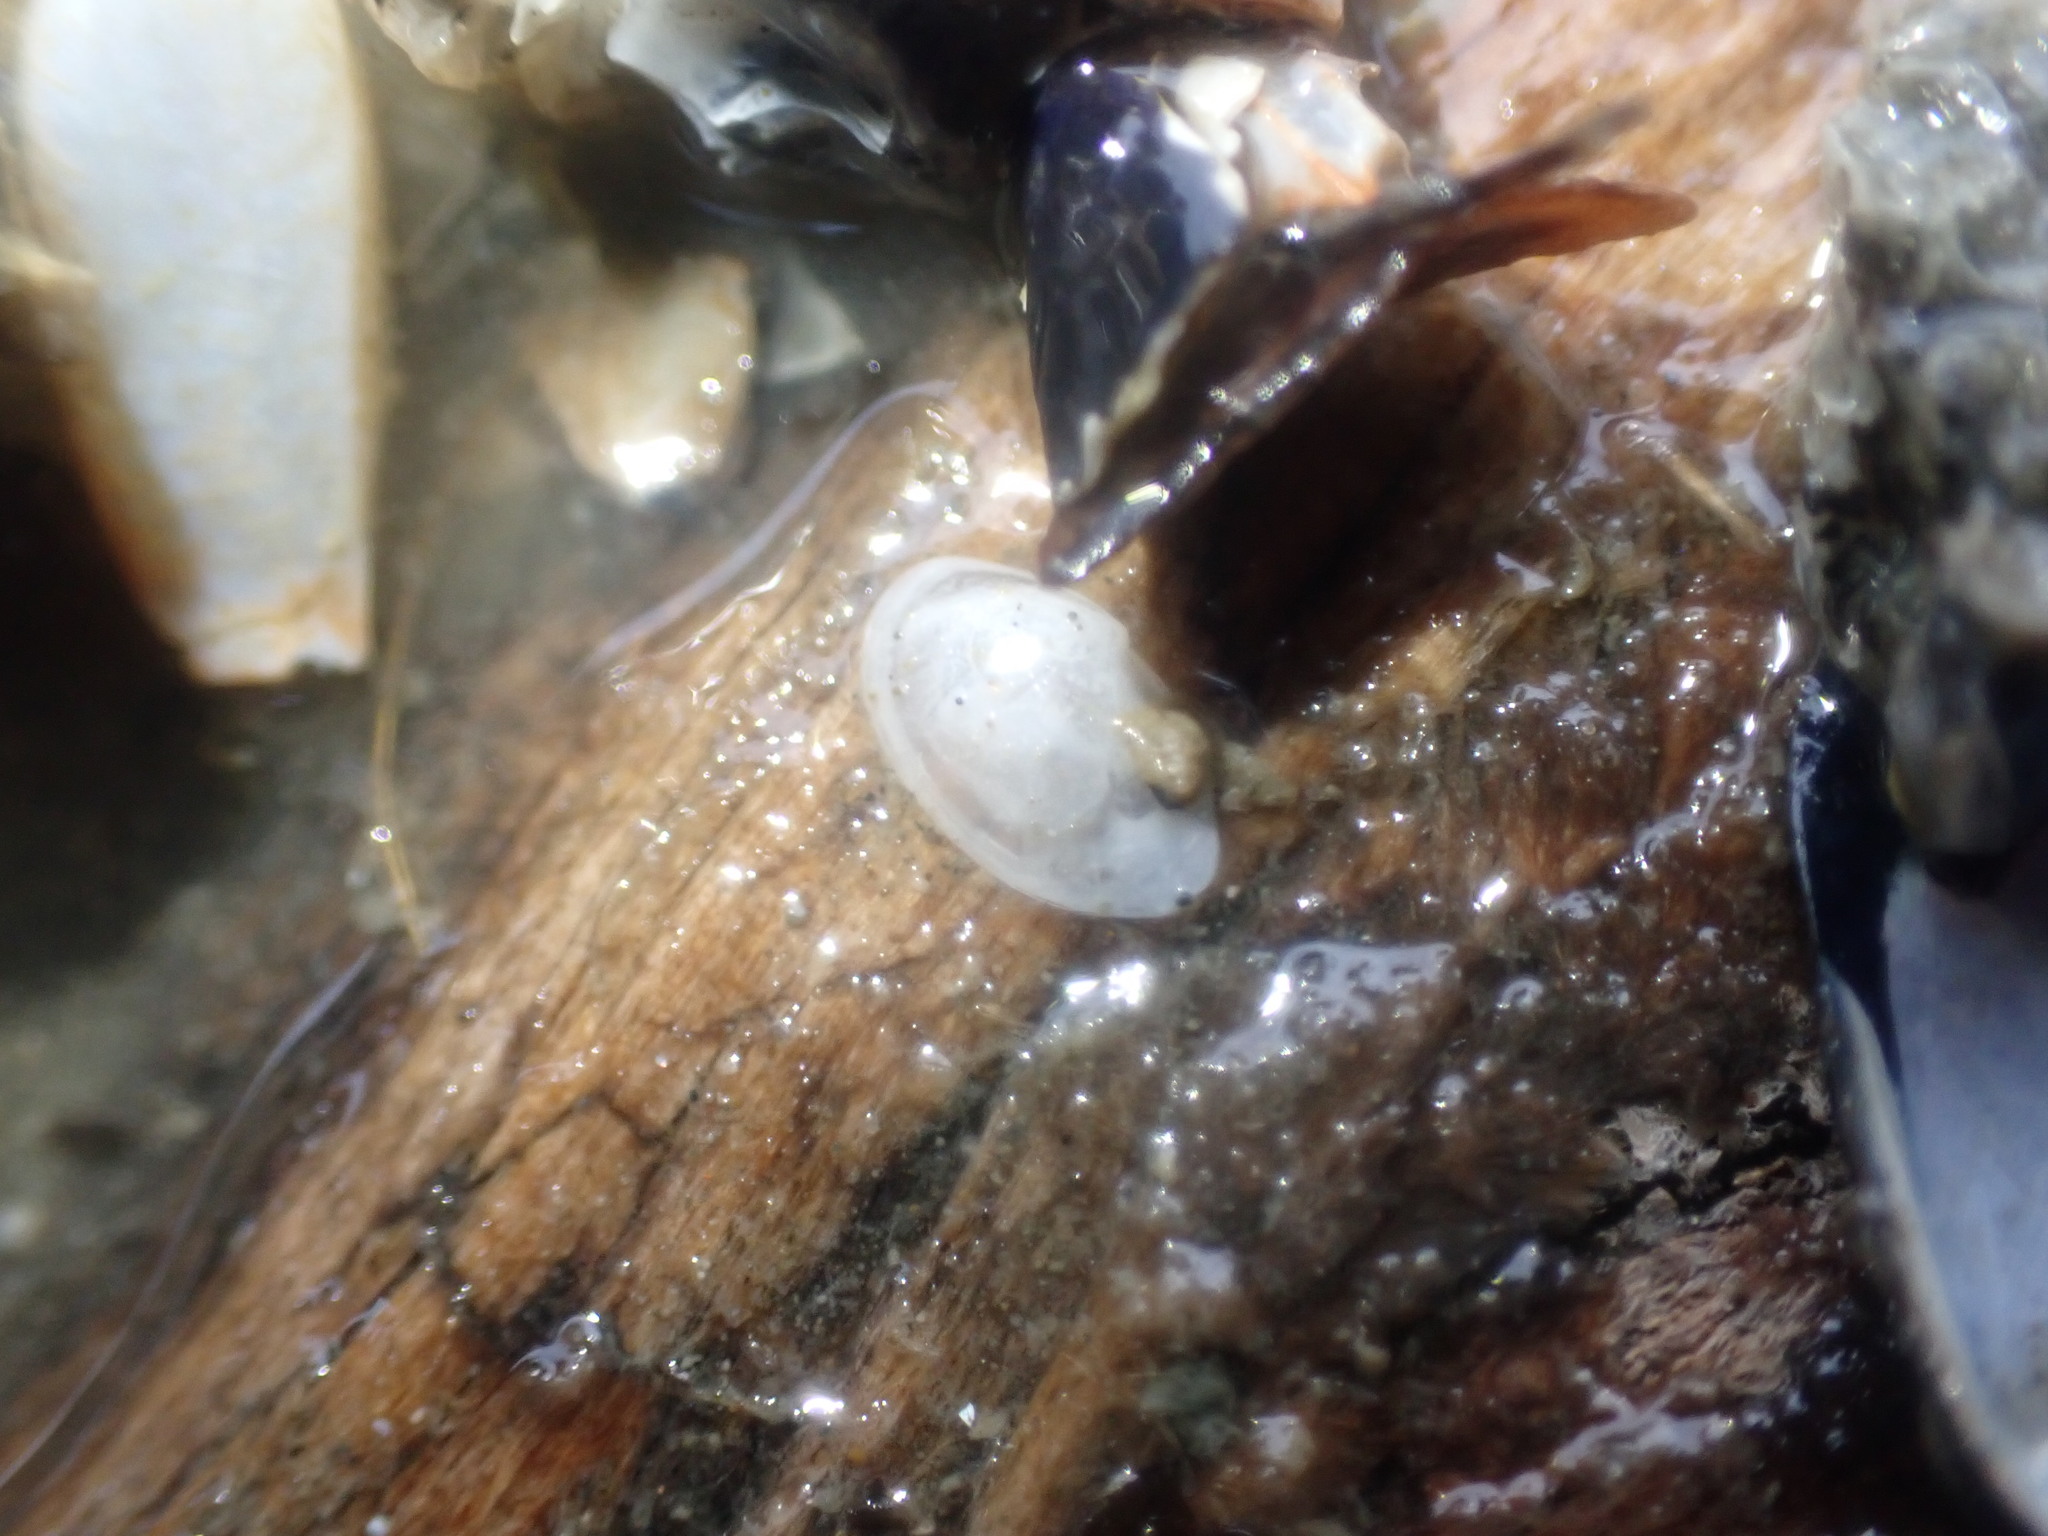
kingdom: Animalia
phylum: Mollusca
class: Bivalvia
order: Cardiida
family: Semelidae
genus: Theora
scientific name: Theora lubrica
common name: Asian semele
